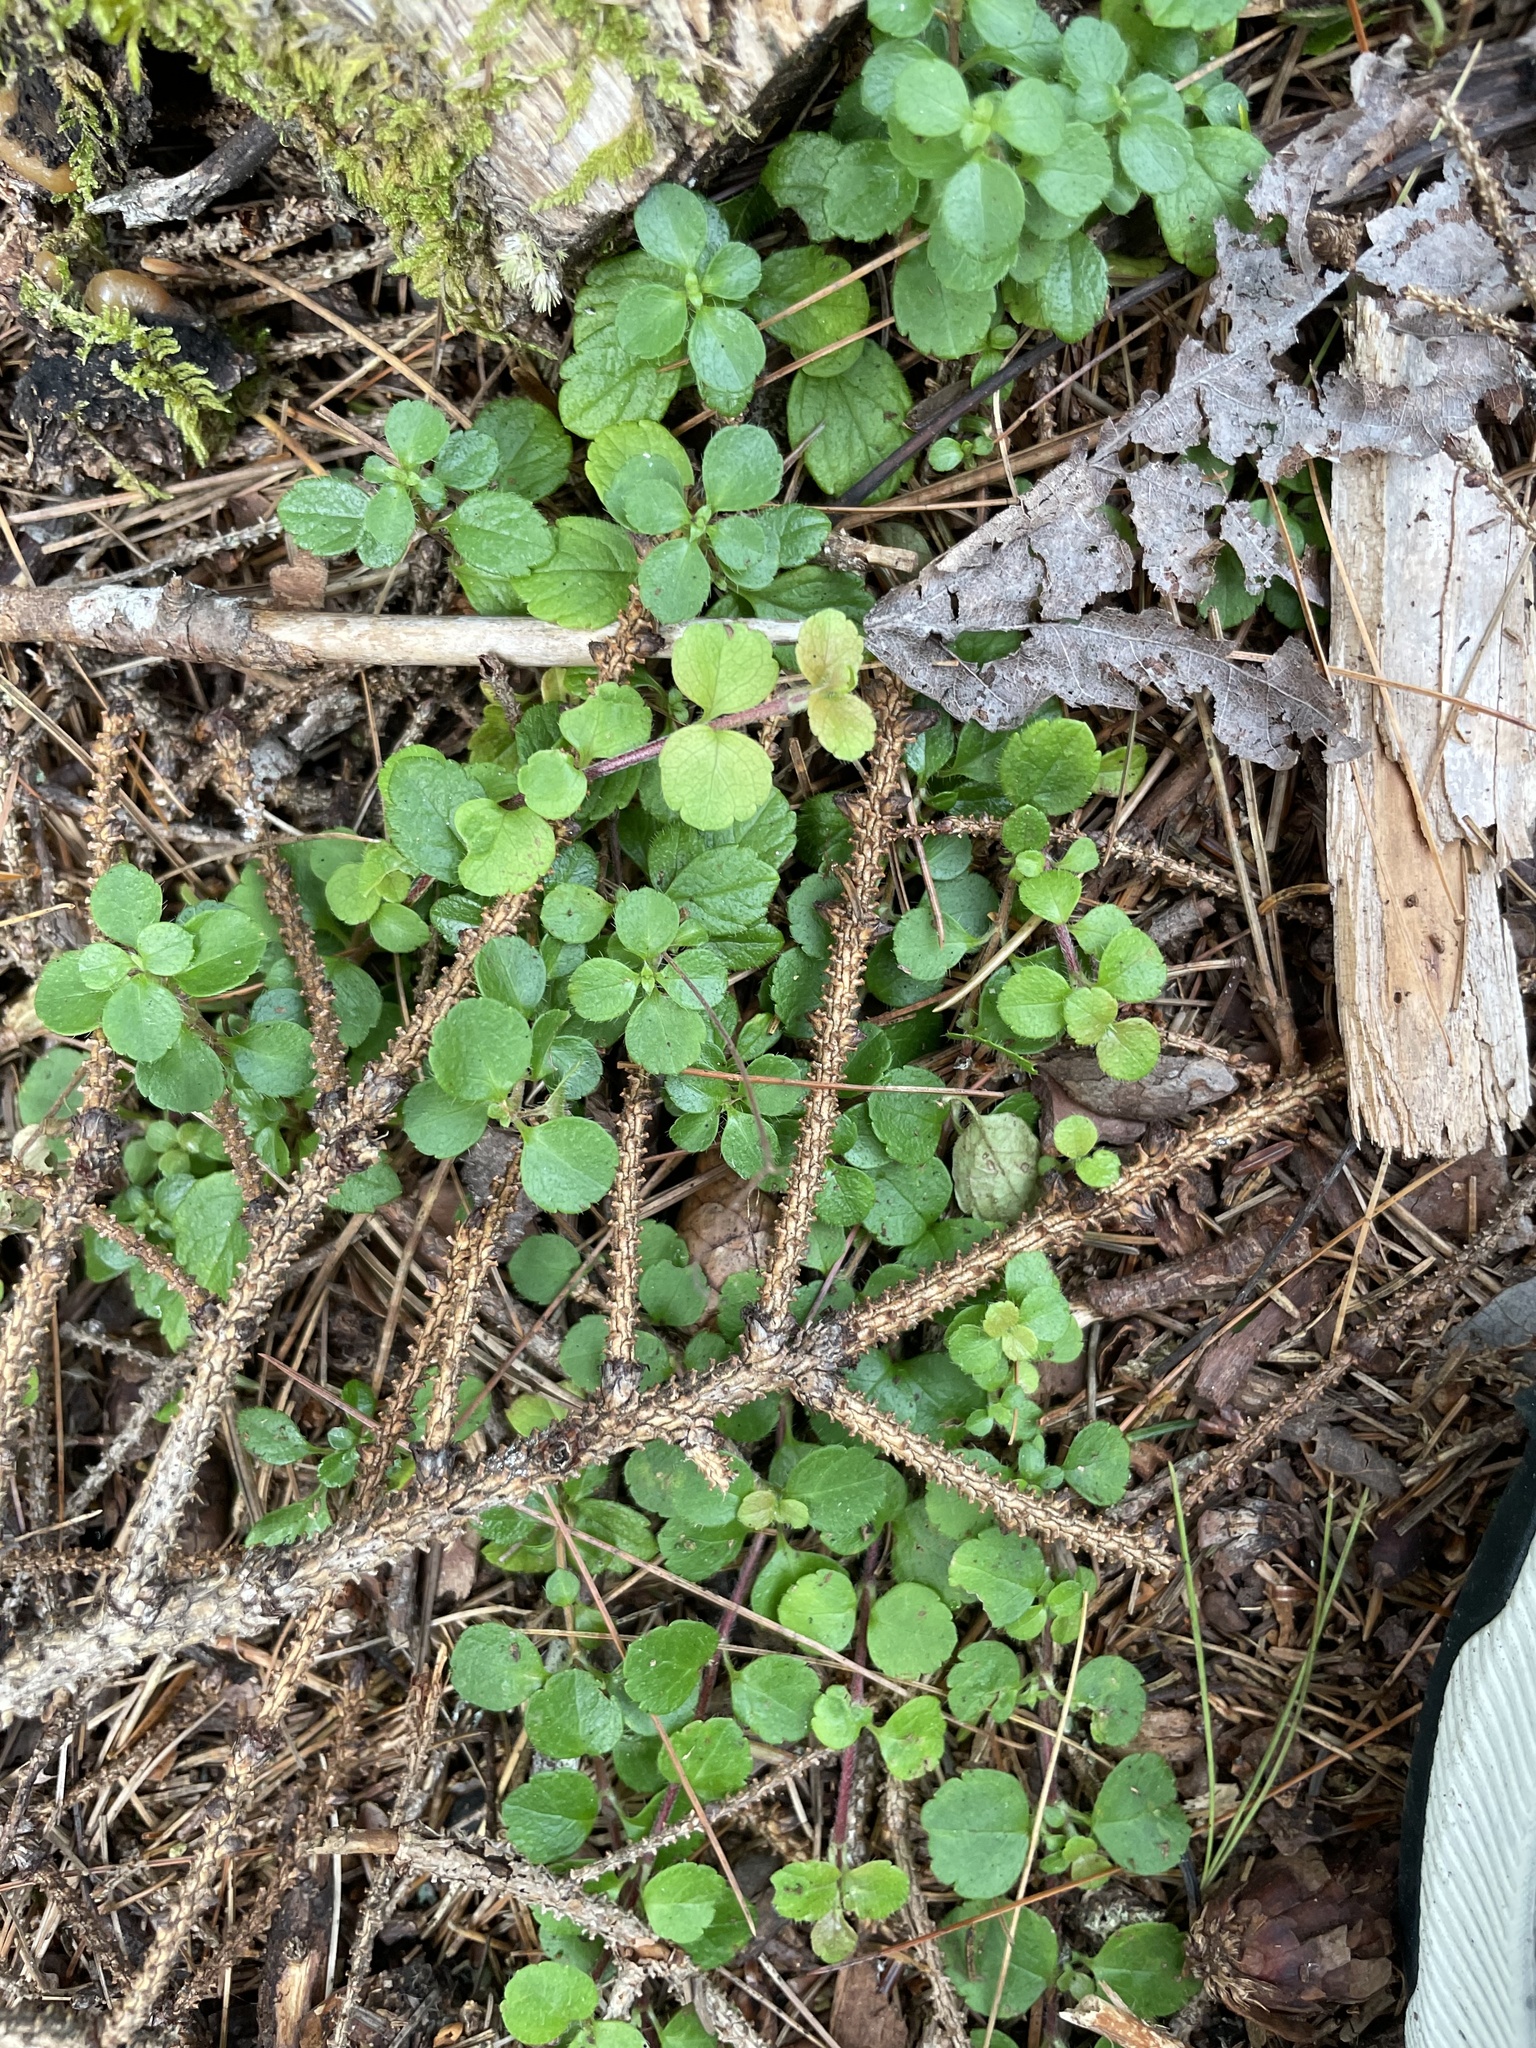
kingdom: Plantae
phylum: Tracheophyta
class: Magnoliopsida
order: Dipsacales
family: Caprifoliaceae
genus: Linnaea
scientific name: Linnaea borealis
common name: Twinflower
